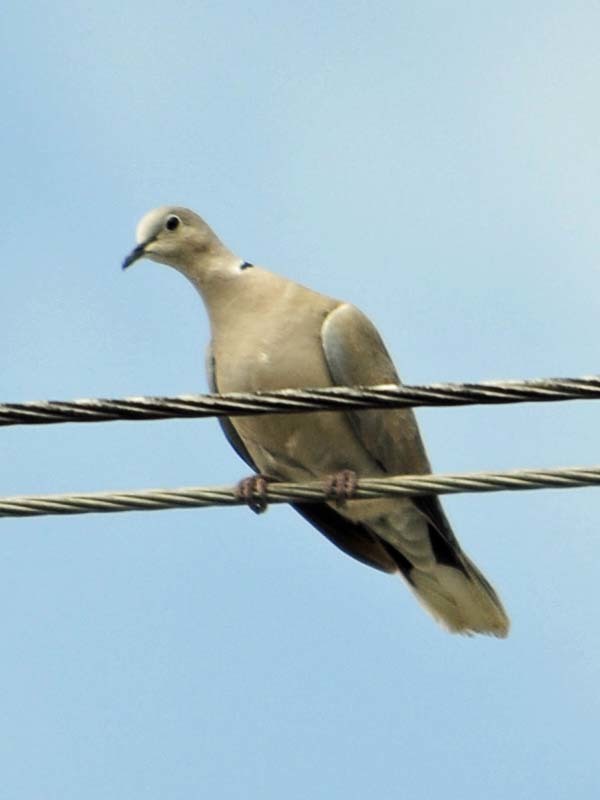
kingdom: Animalia
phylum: Chordata
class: Aves
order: Columbiformes
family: Columbidae
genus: Streptopelia
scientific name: Streptopelia decaocto
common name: Eurasian collared dove
